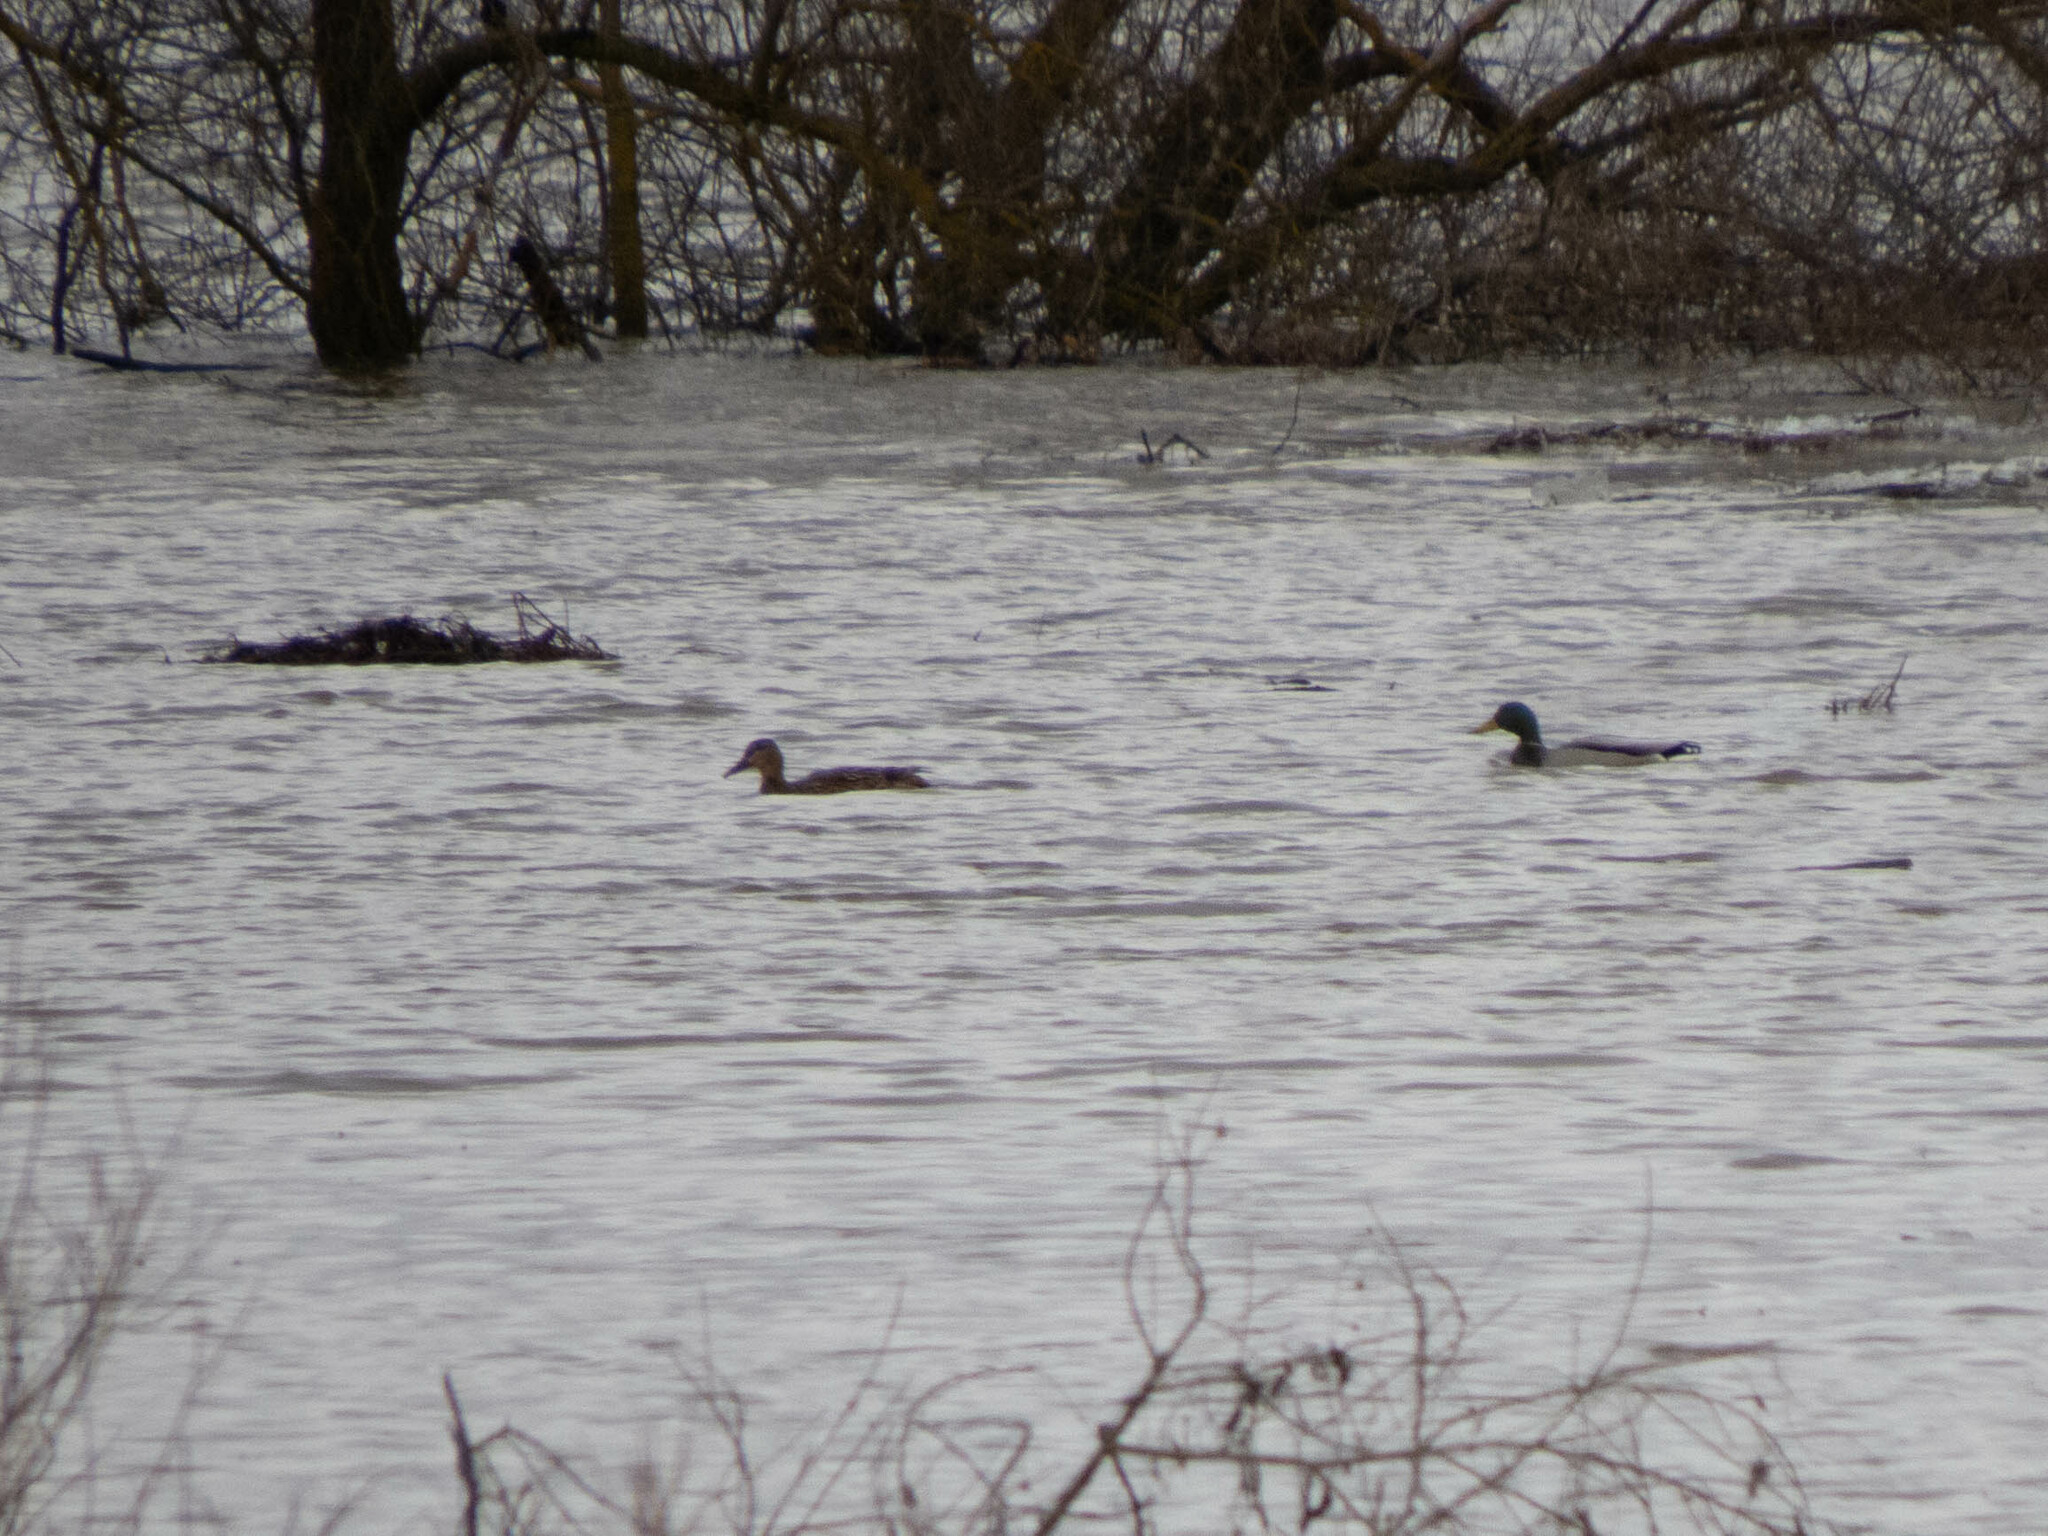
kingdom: Animalia
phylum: Chordata
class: Aves
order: Anseriformes
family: Anatidae
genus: Anas
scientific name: Anas platyrhynchos
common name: Mallard
